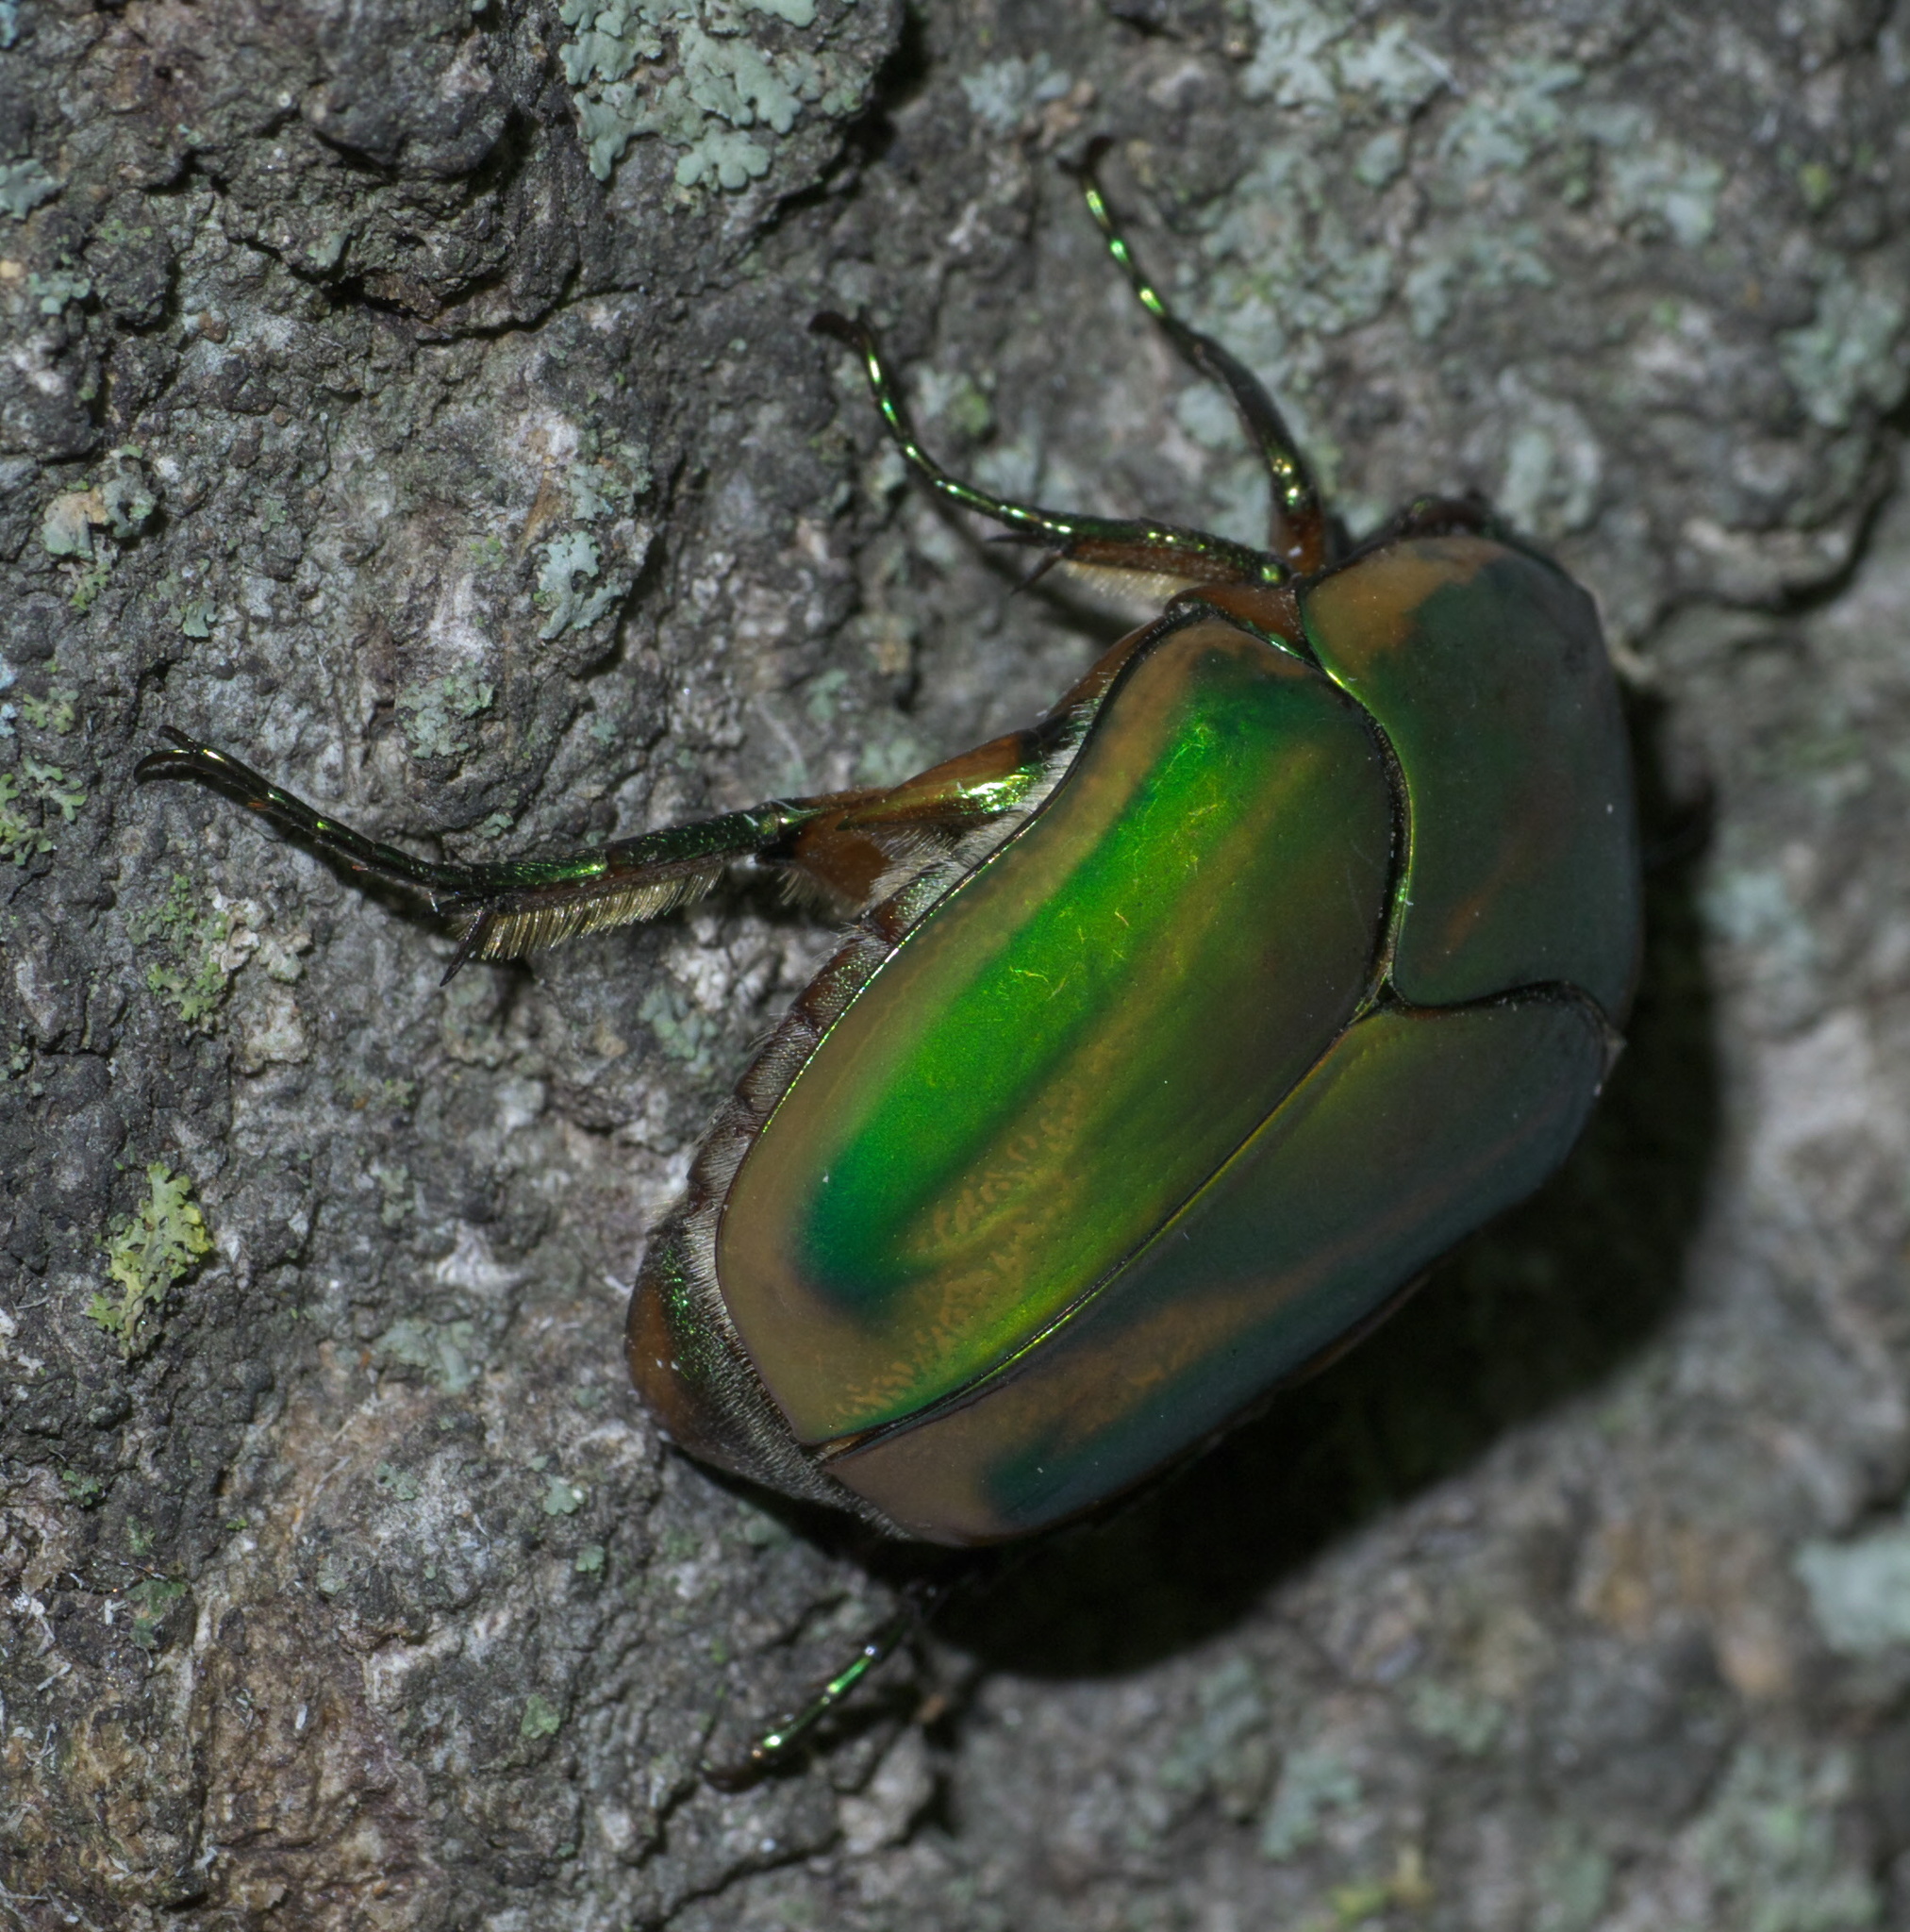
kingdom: Animalia
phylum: Arthropoda
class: Insecta
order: Coleoptera
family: Scarabaeidae
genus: Cotinis
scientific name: Cotinis nitida
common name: Common green june beetle
